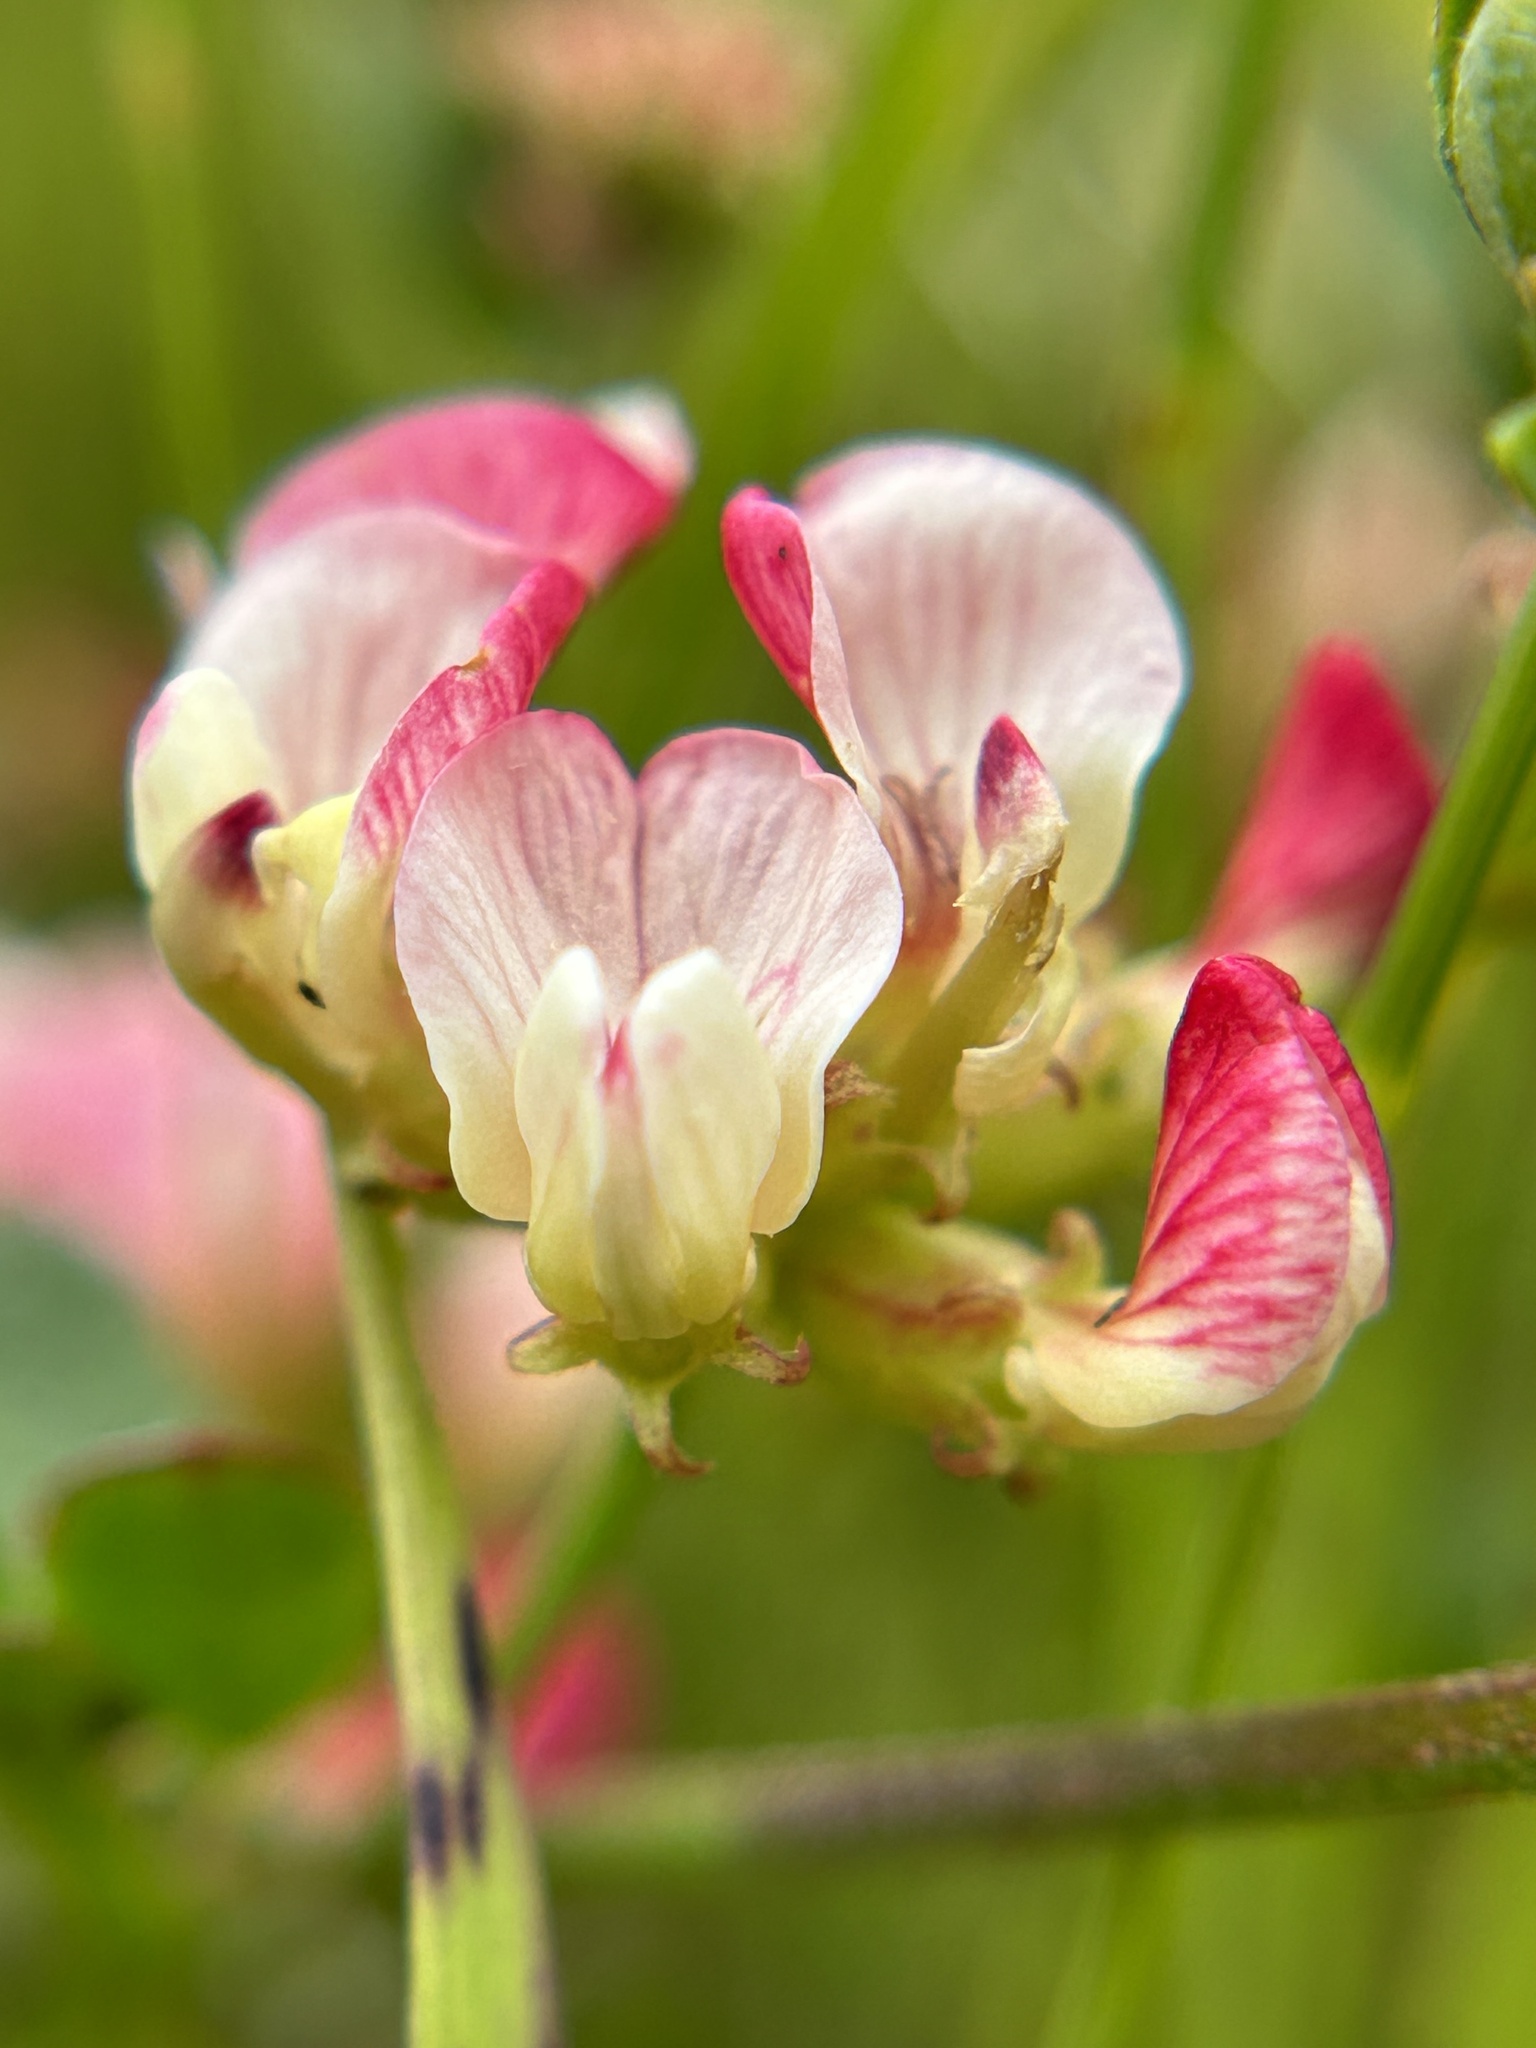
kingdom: Plantae
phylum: Tracheophyta
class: Magnoliopsida
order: Fabales
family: Fabaceae
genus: Acmispon
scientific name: Acmispon cytisoides
